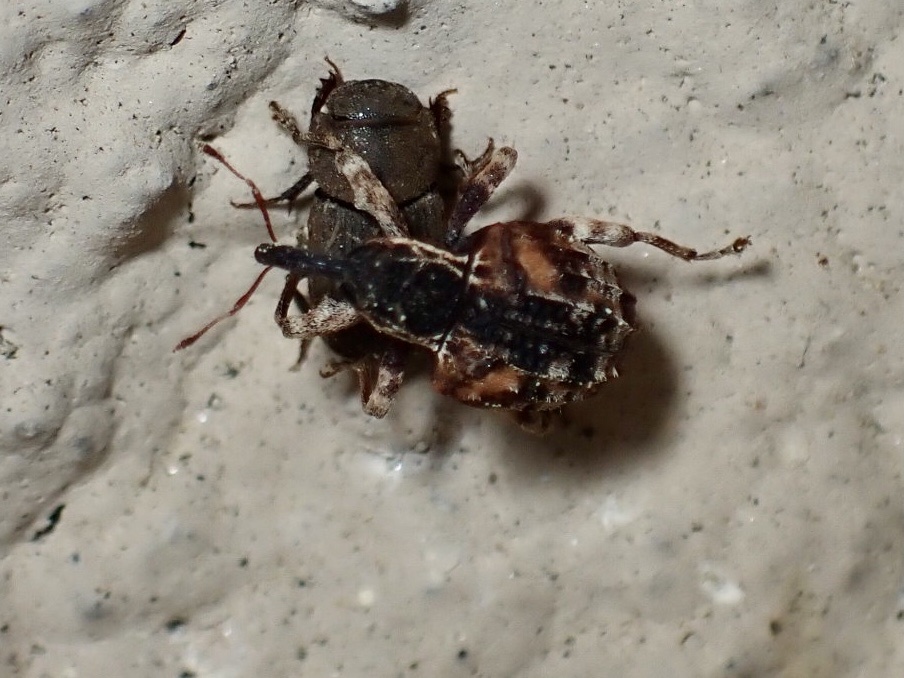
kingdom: Animalia
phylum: Arthropoda
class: Insecta
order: Coleoptera
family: Curculionidae
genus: Conotrachelus
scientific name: Conotrachelus anaglypticus
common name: Cambium curculio
